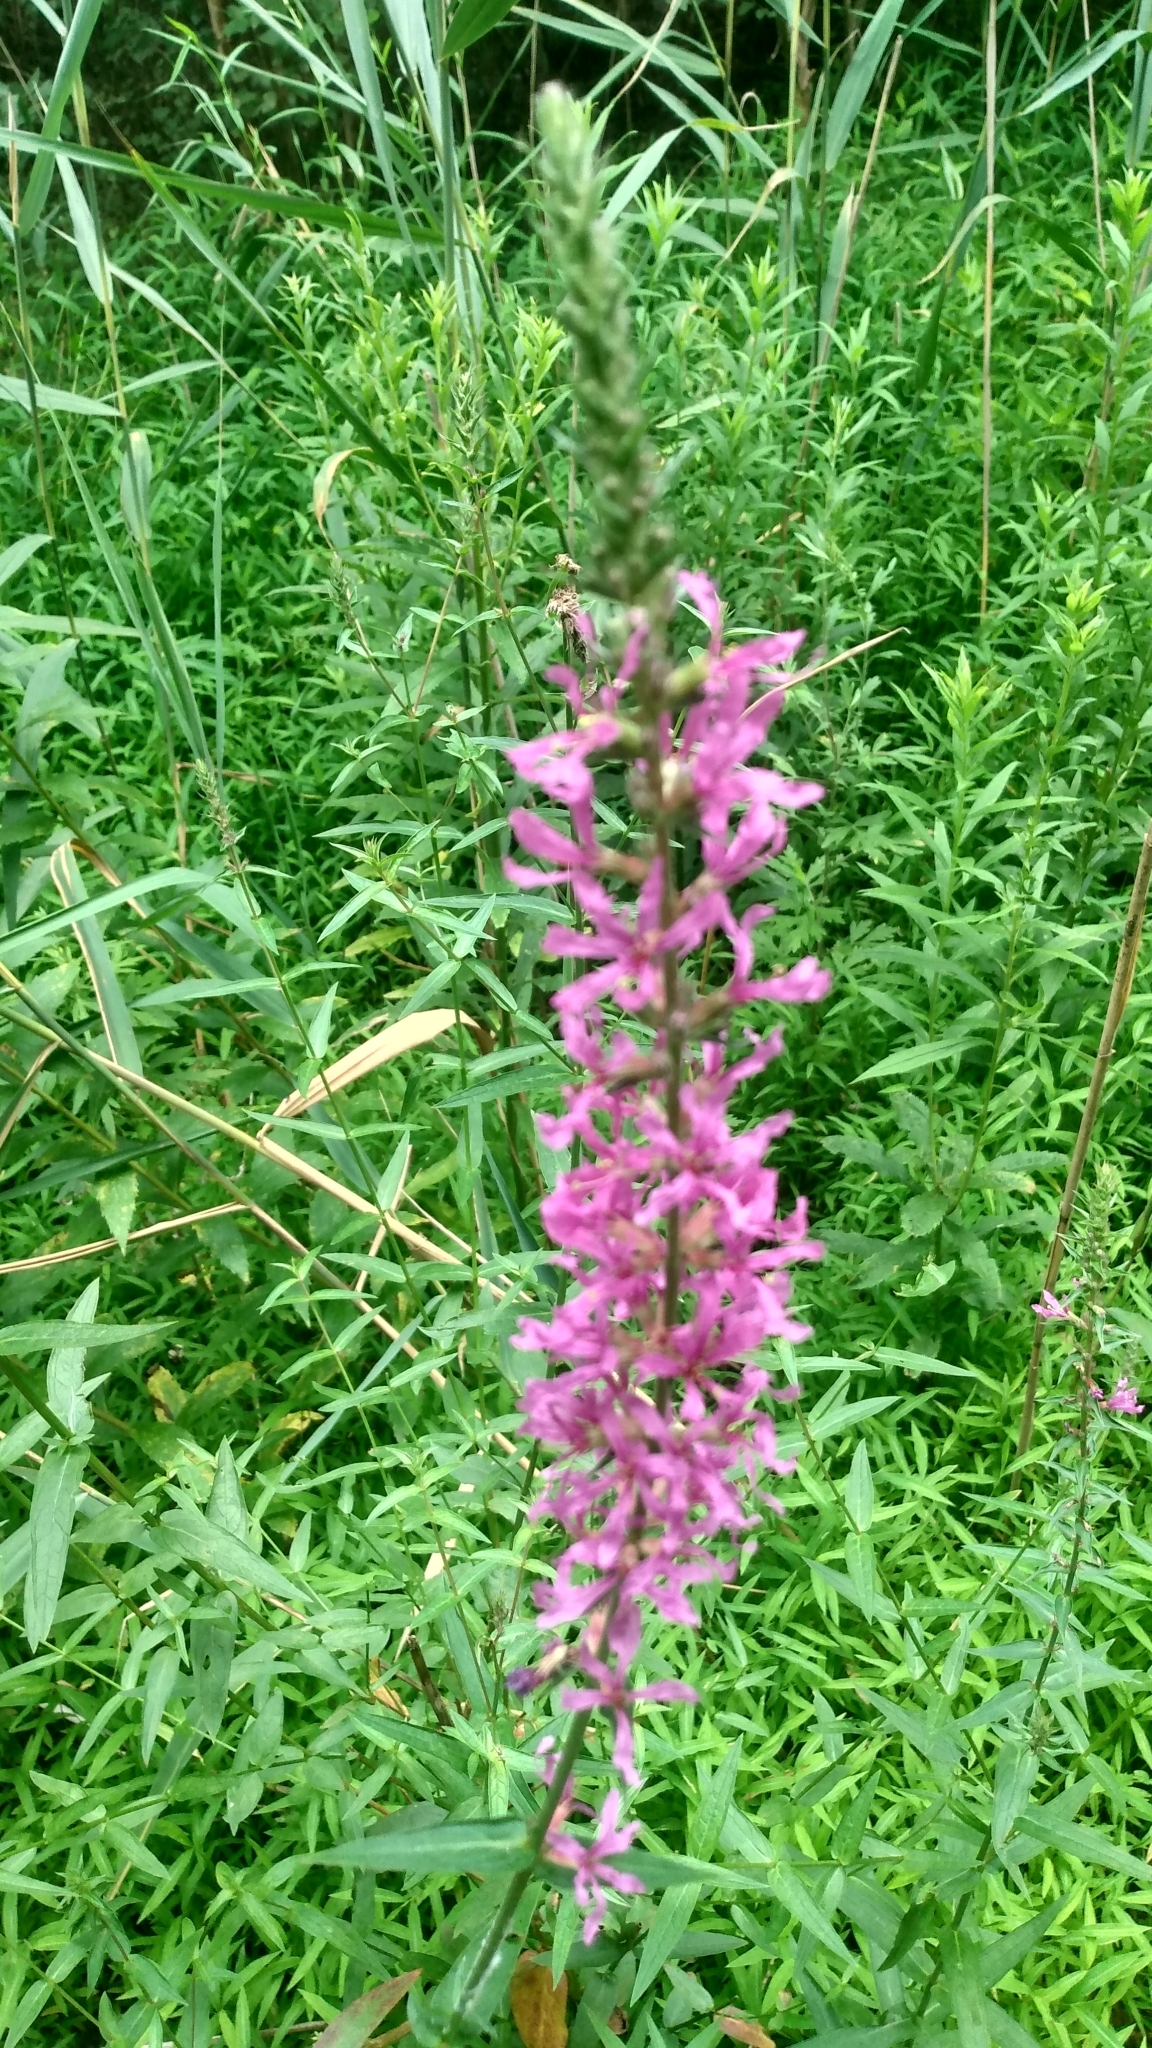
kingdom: Plantae
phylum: Tracheophyta
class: Magnoliopsida
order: Myrtales
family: Lythraceae
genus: Lythrum
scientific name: Lythrum salicaria
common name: Purple loosestrife
